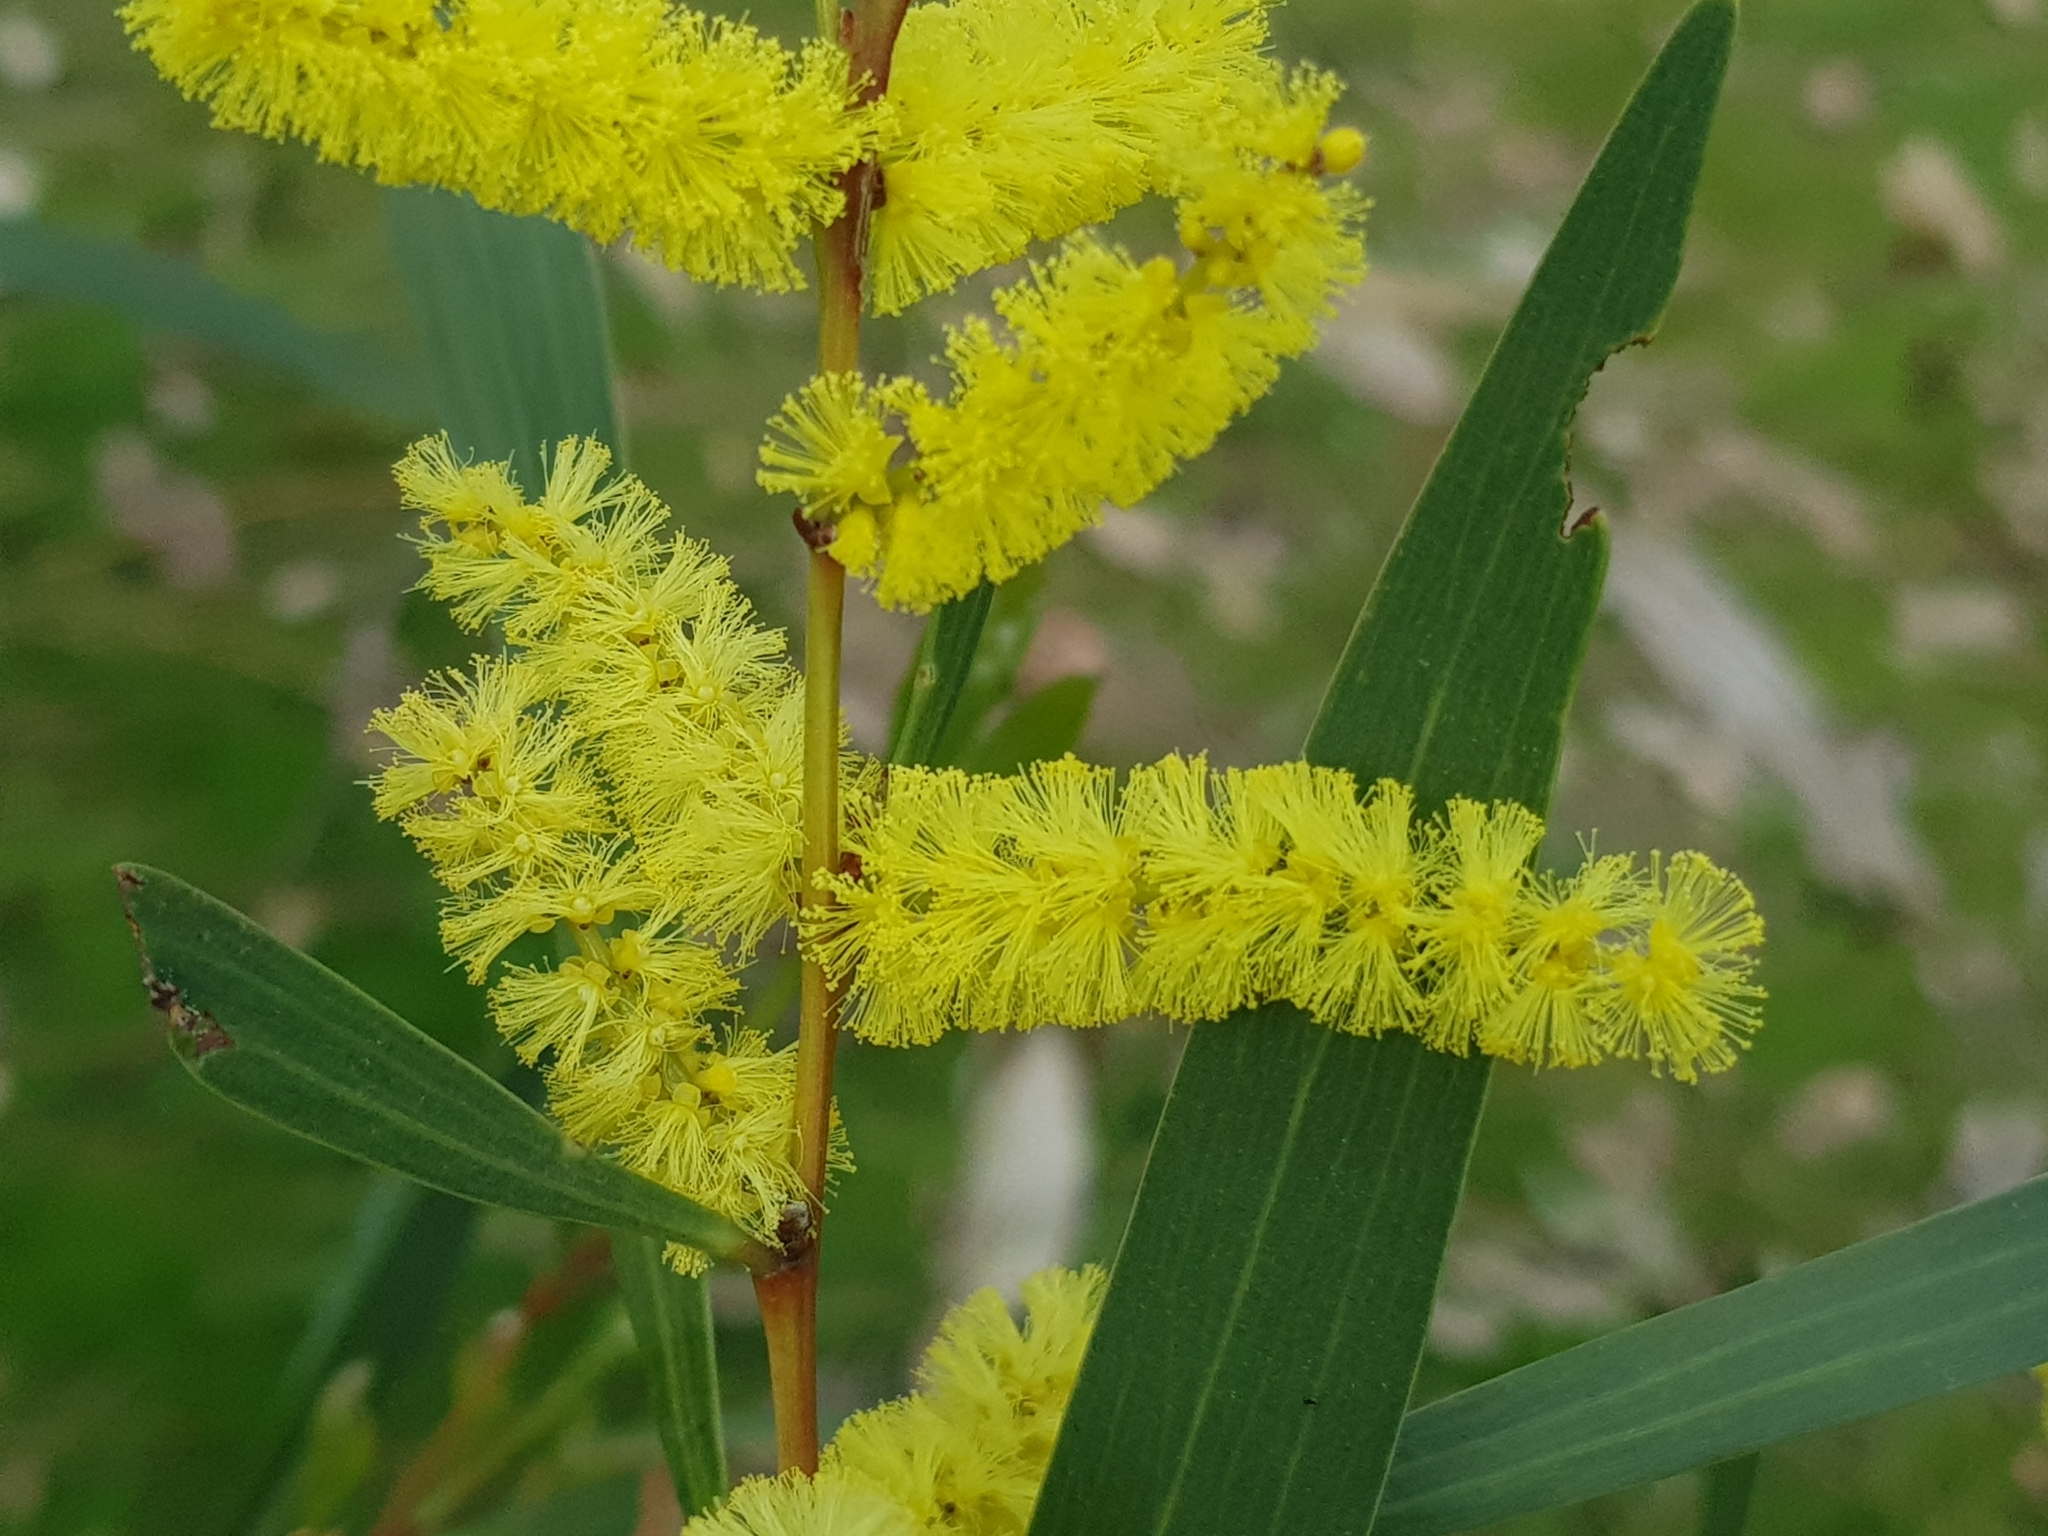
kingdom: Plantae
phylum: Tracheophyta
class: Magnoliopsida
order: Fabales
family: Fabaceae
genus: Acacia
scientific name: Acacia longifolia
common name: Sydney golden wattle
